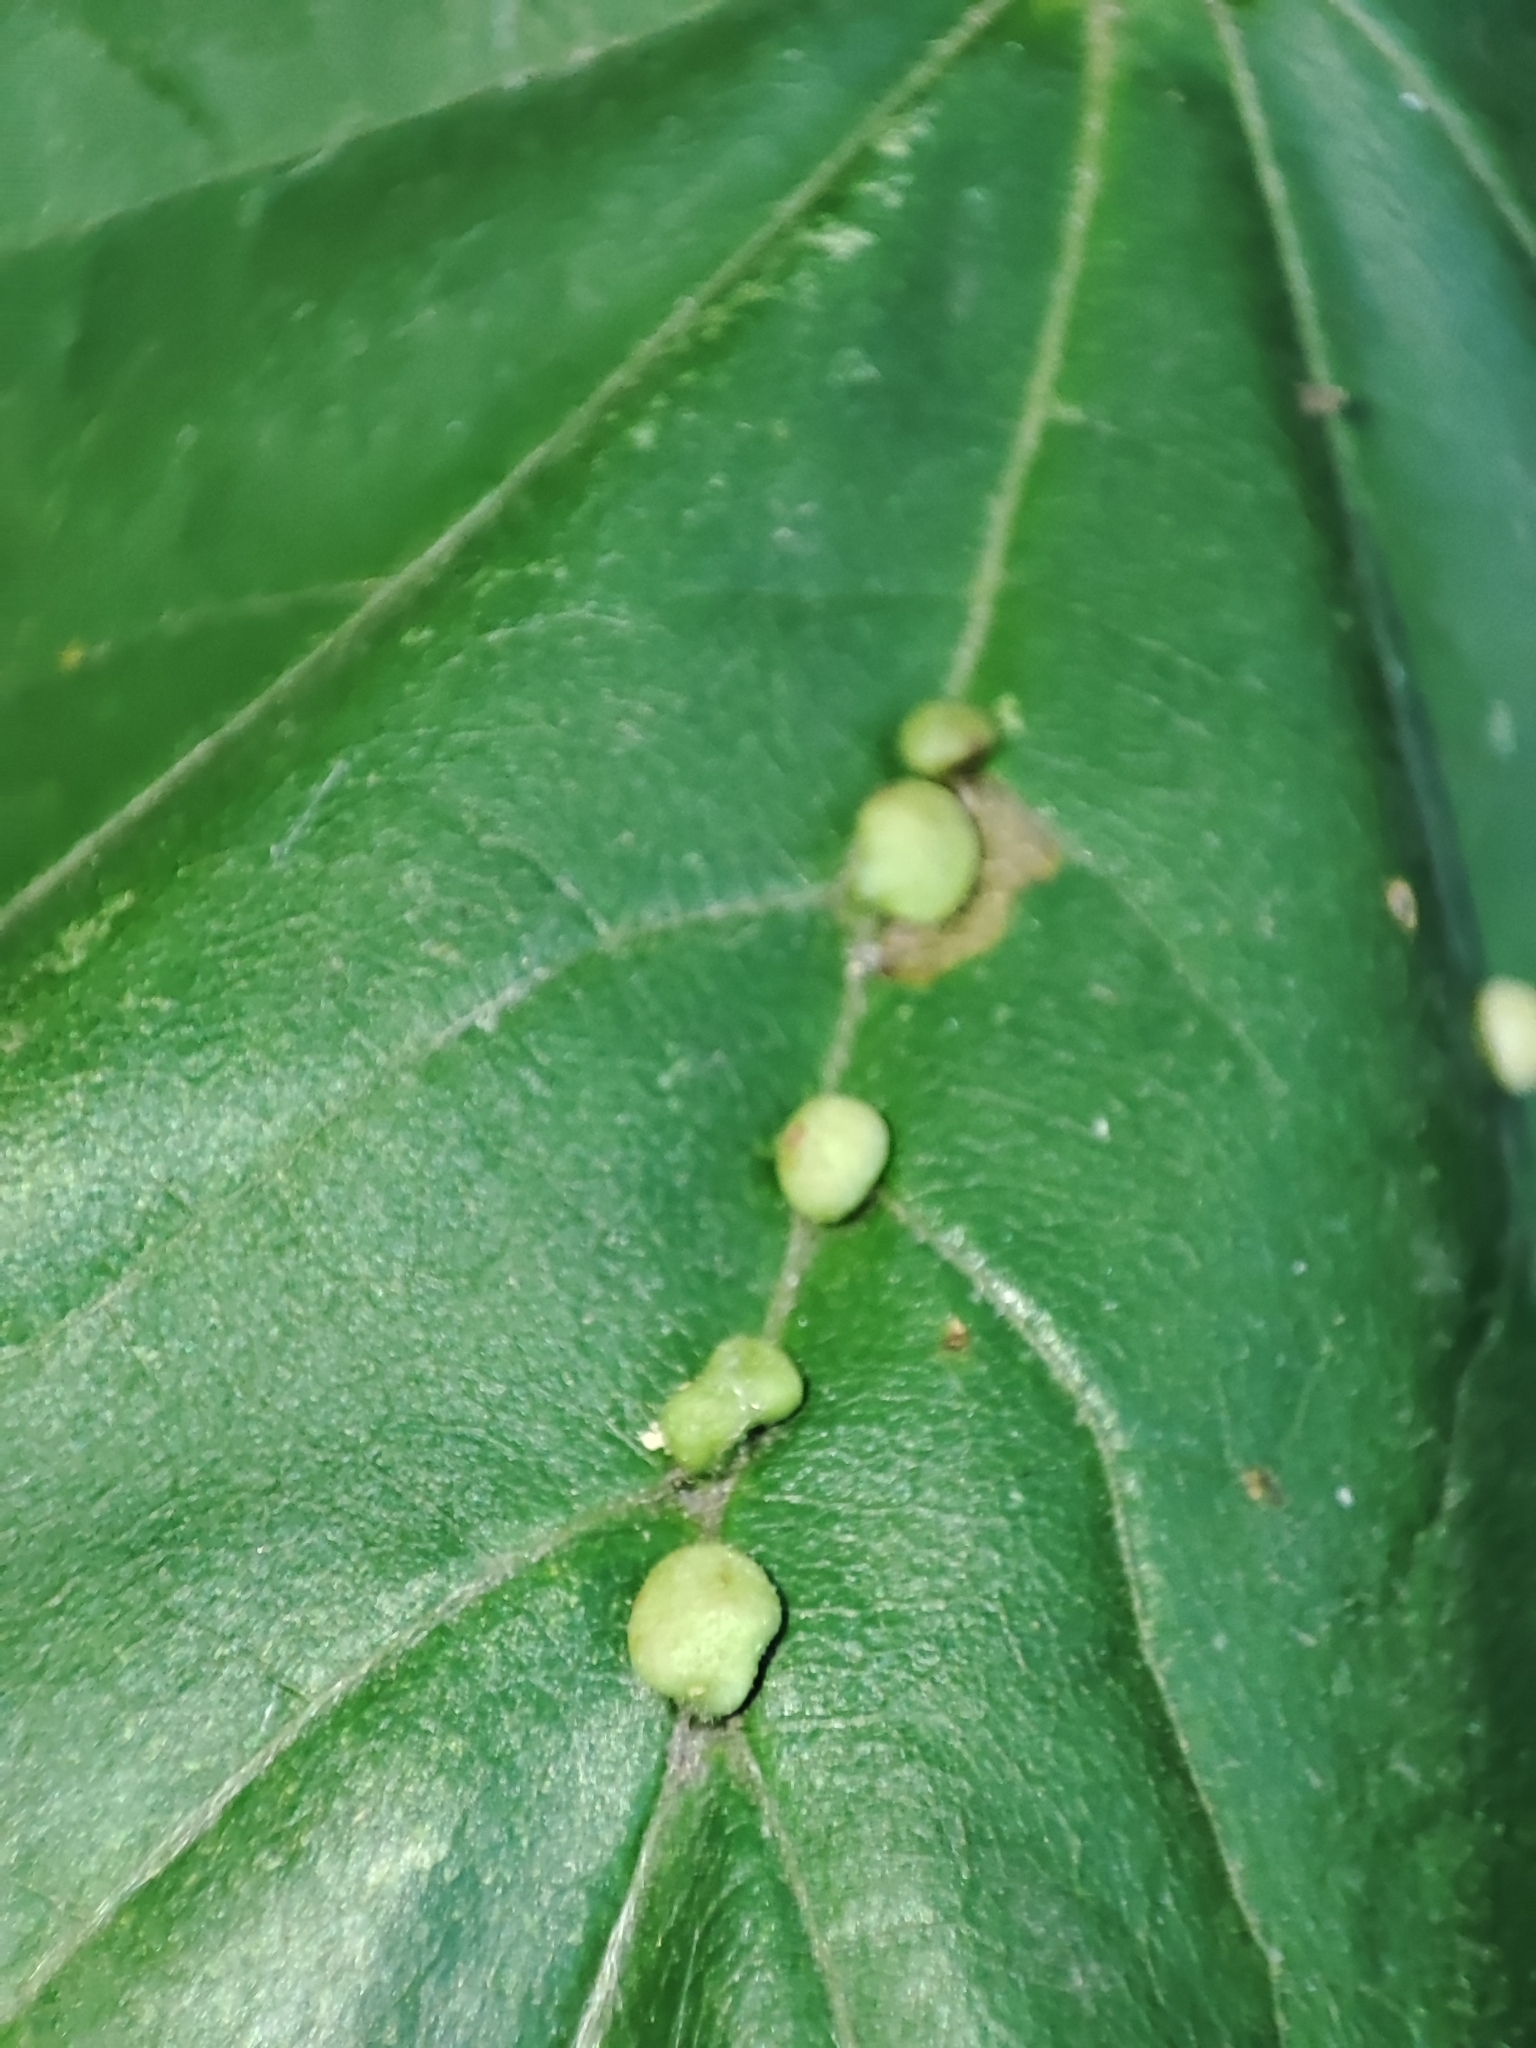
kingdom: Plantae
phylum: Tracheophyta
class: Magnoliopsida
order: Sapindales
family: Sapindaceae
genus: Acer
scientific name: Acer campestre
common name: Field maple
